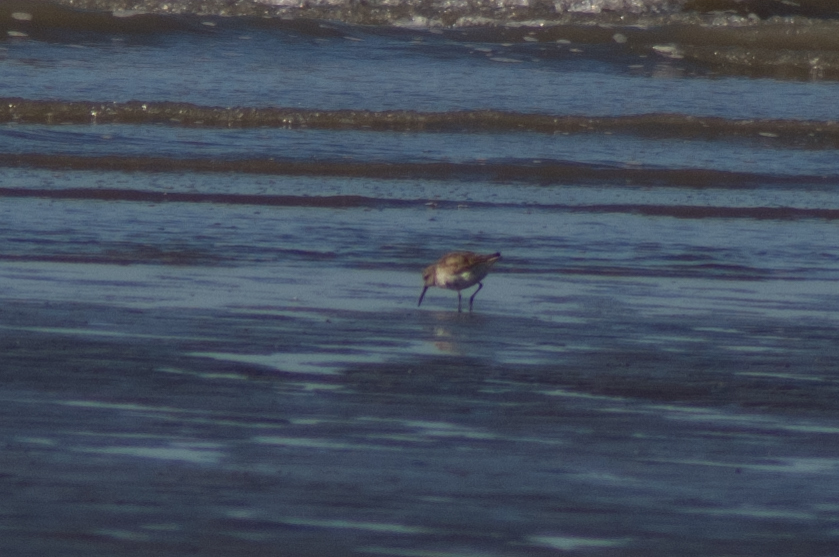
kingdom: Animalia
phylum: Chordata
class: Aves
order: Charadriiformes
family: Scolopacidae
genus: Calidris
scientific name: Calidris alpina
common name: Dunlin
